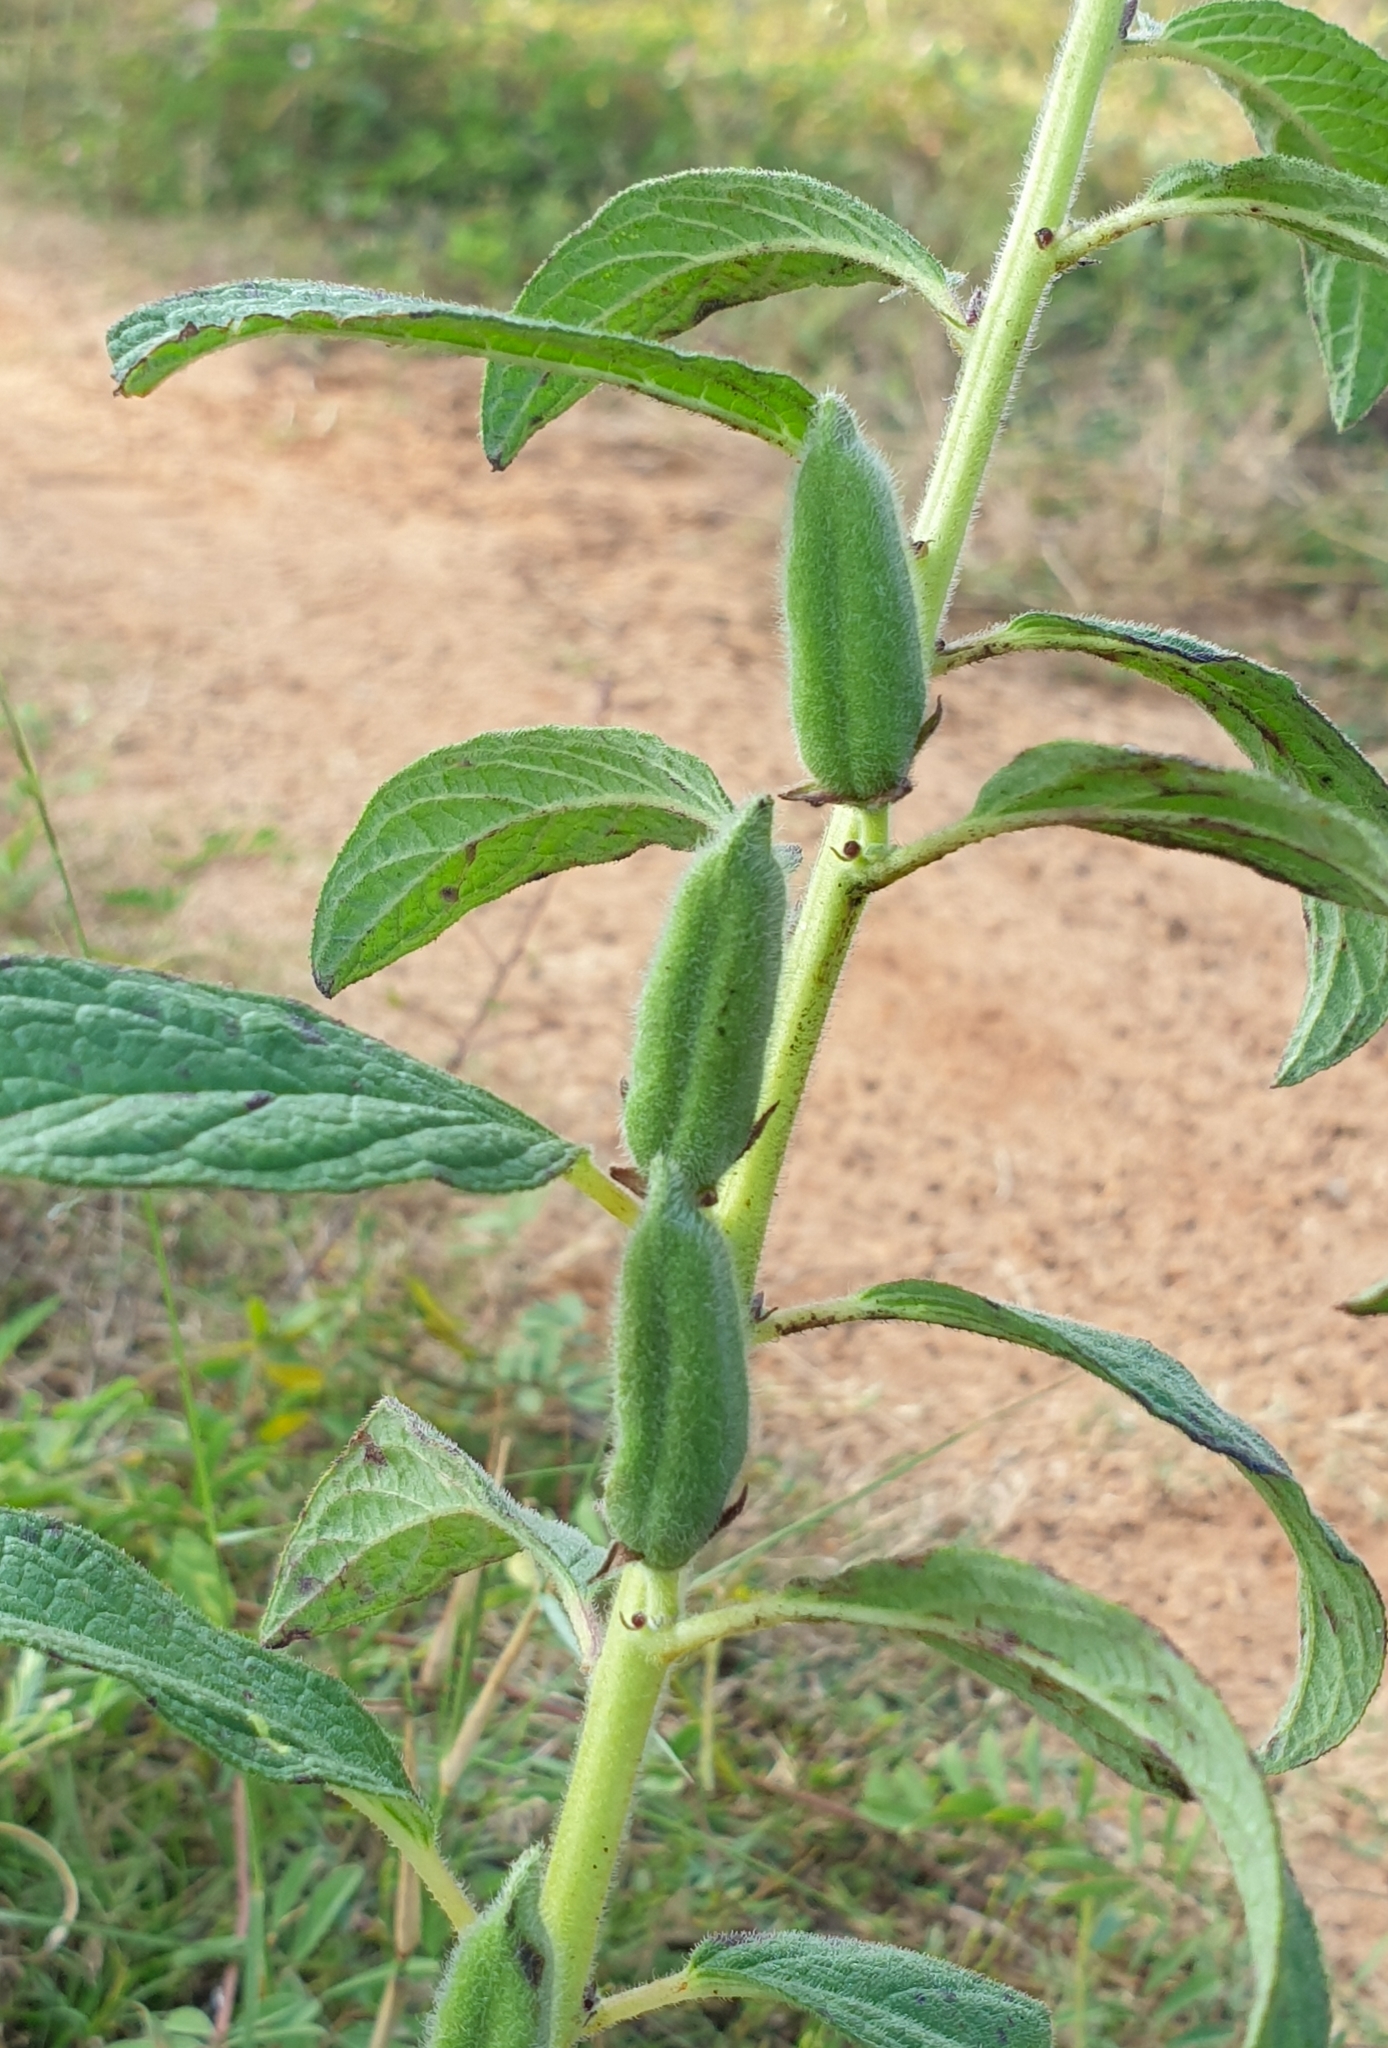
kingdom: Plantae
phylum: Tracheophyta
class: Magnoliopsida
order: Lamiales
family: Pedaliaceae
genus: Sesamum
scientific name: Sesamum indicum
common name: Sesame
